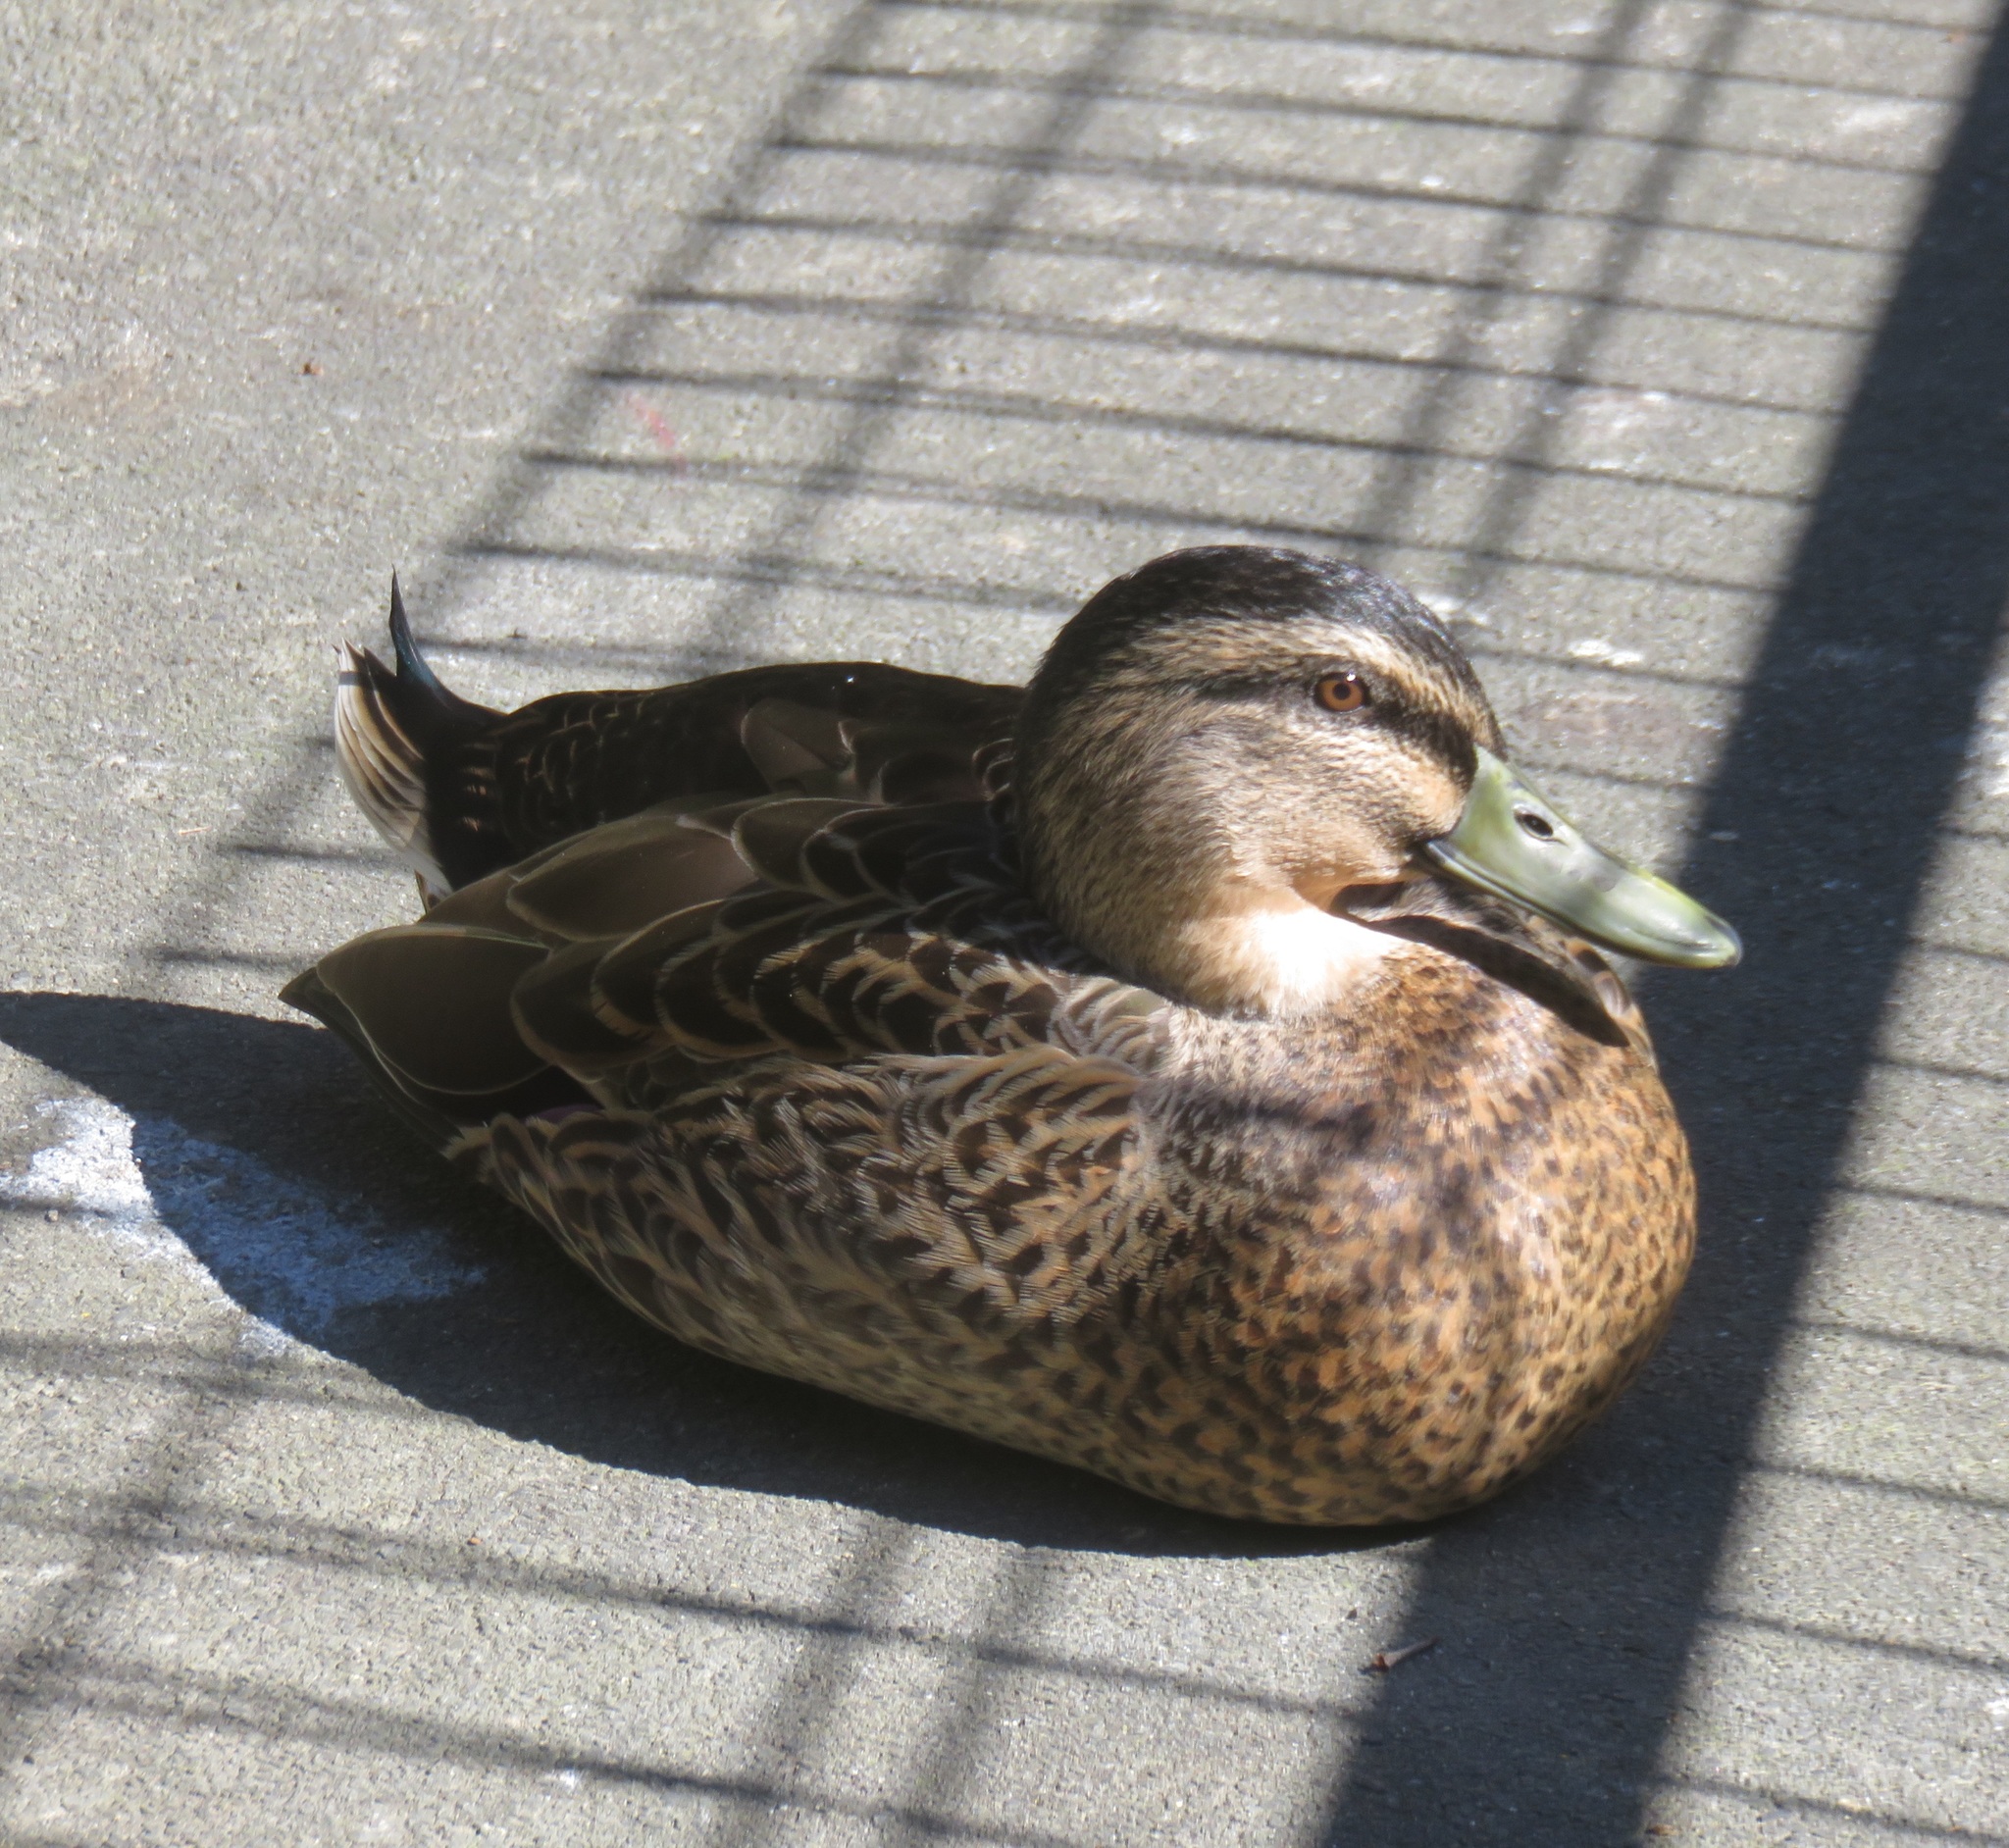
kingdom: Animalia
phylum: Chordata
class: Aves
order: Anseriformes
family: Anatidae
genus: Anas
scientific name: Anas
